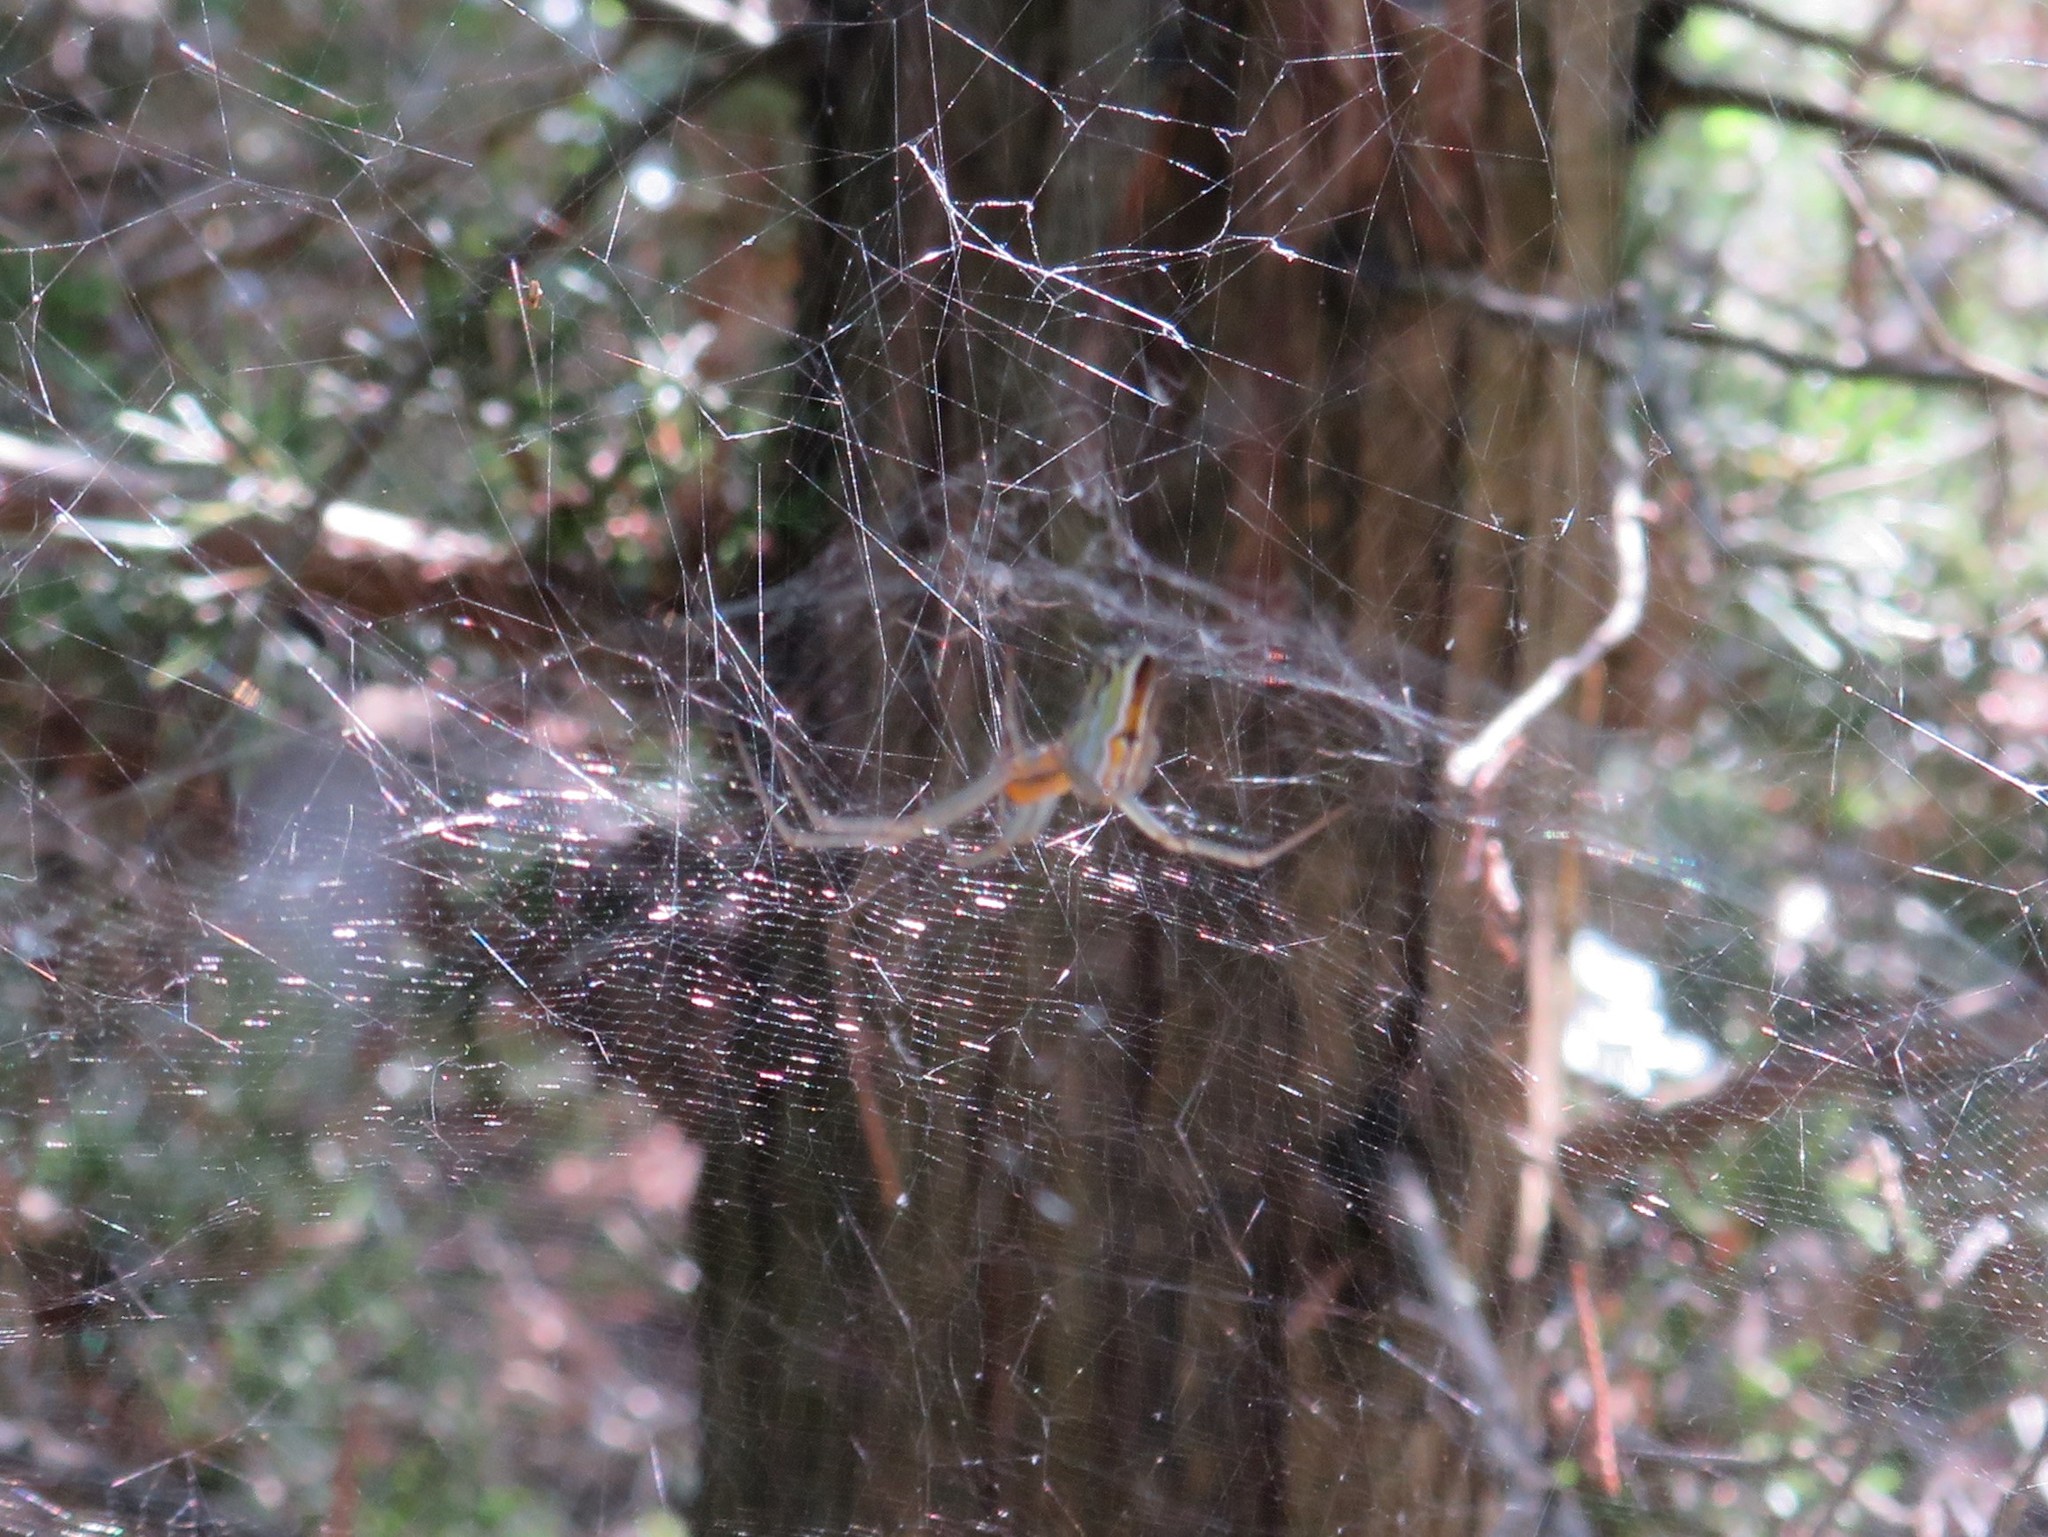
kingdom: Animalia
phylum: Arthropoda
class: Arachnida
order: Araneae
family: Araneidae
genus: Mecynogea
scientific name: Mecynogea lemniscata
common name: Orb weavers
